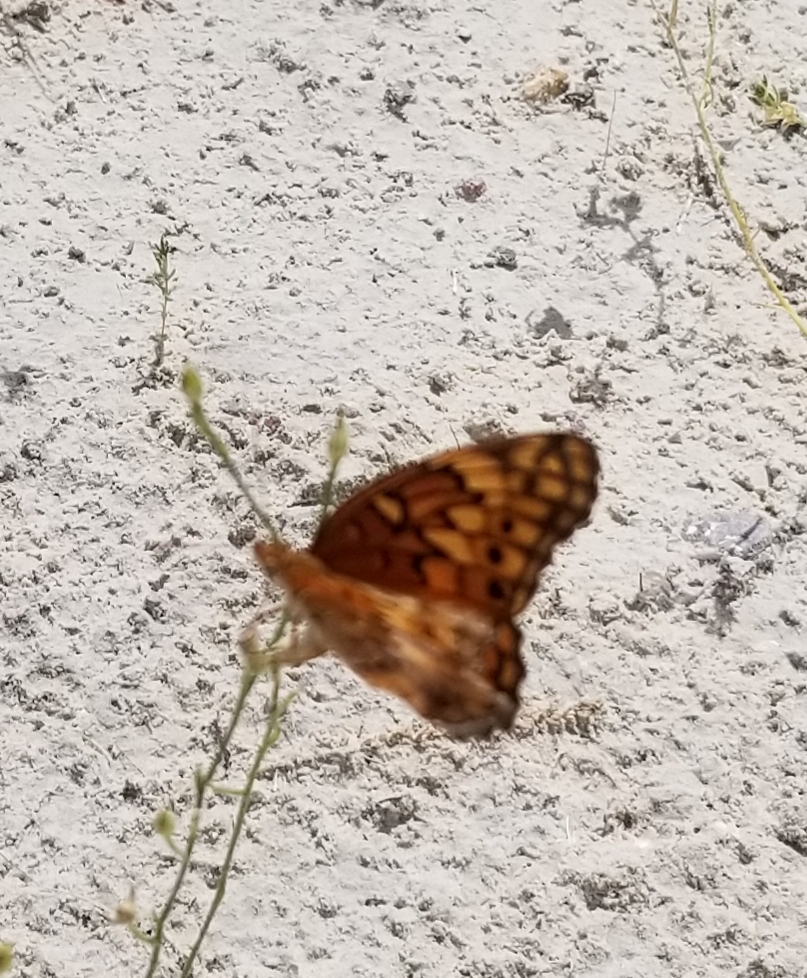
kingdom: Animalia
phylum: Arthropoda
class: Insecta
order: Lepidoptera
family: Nymphalidae
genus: Euptoieta
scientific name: Euptoieta claudia
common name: Variegated fritillary
